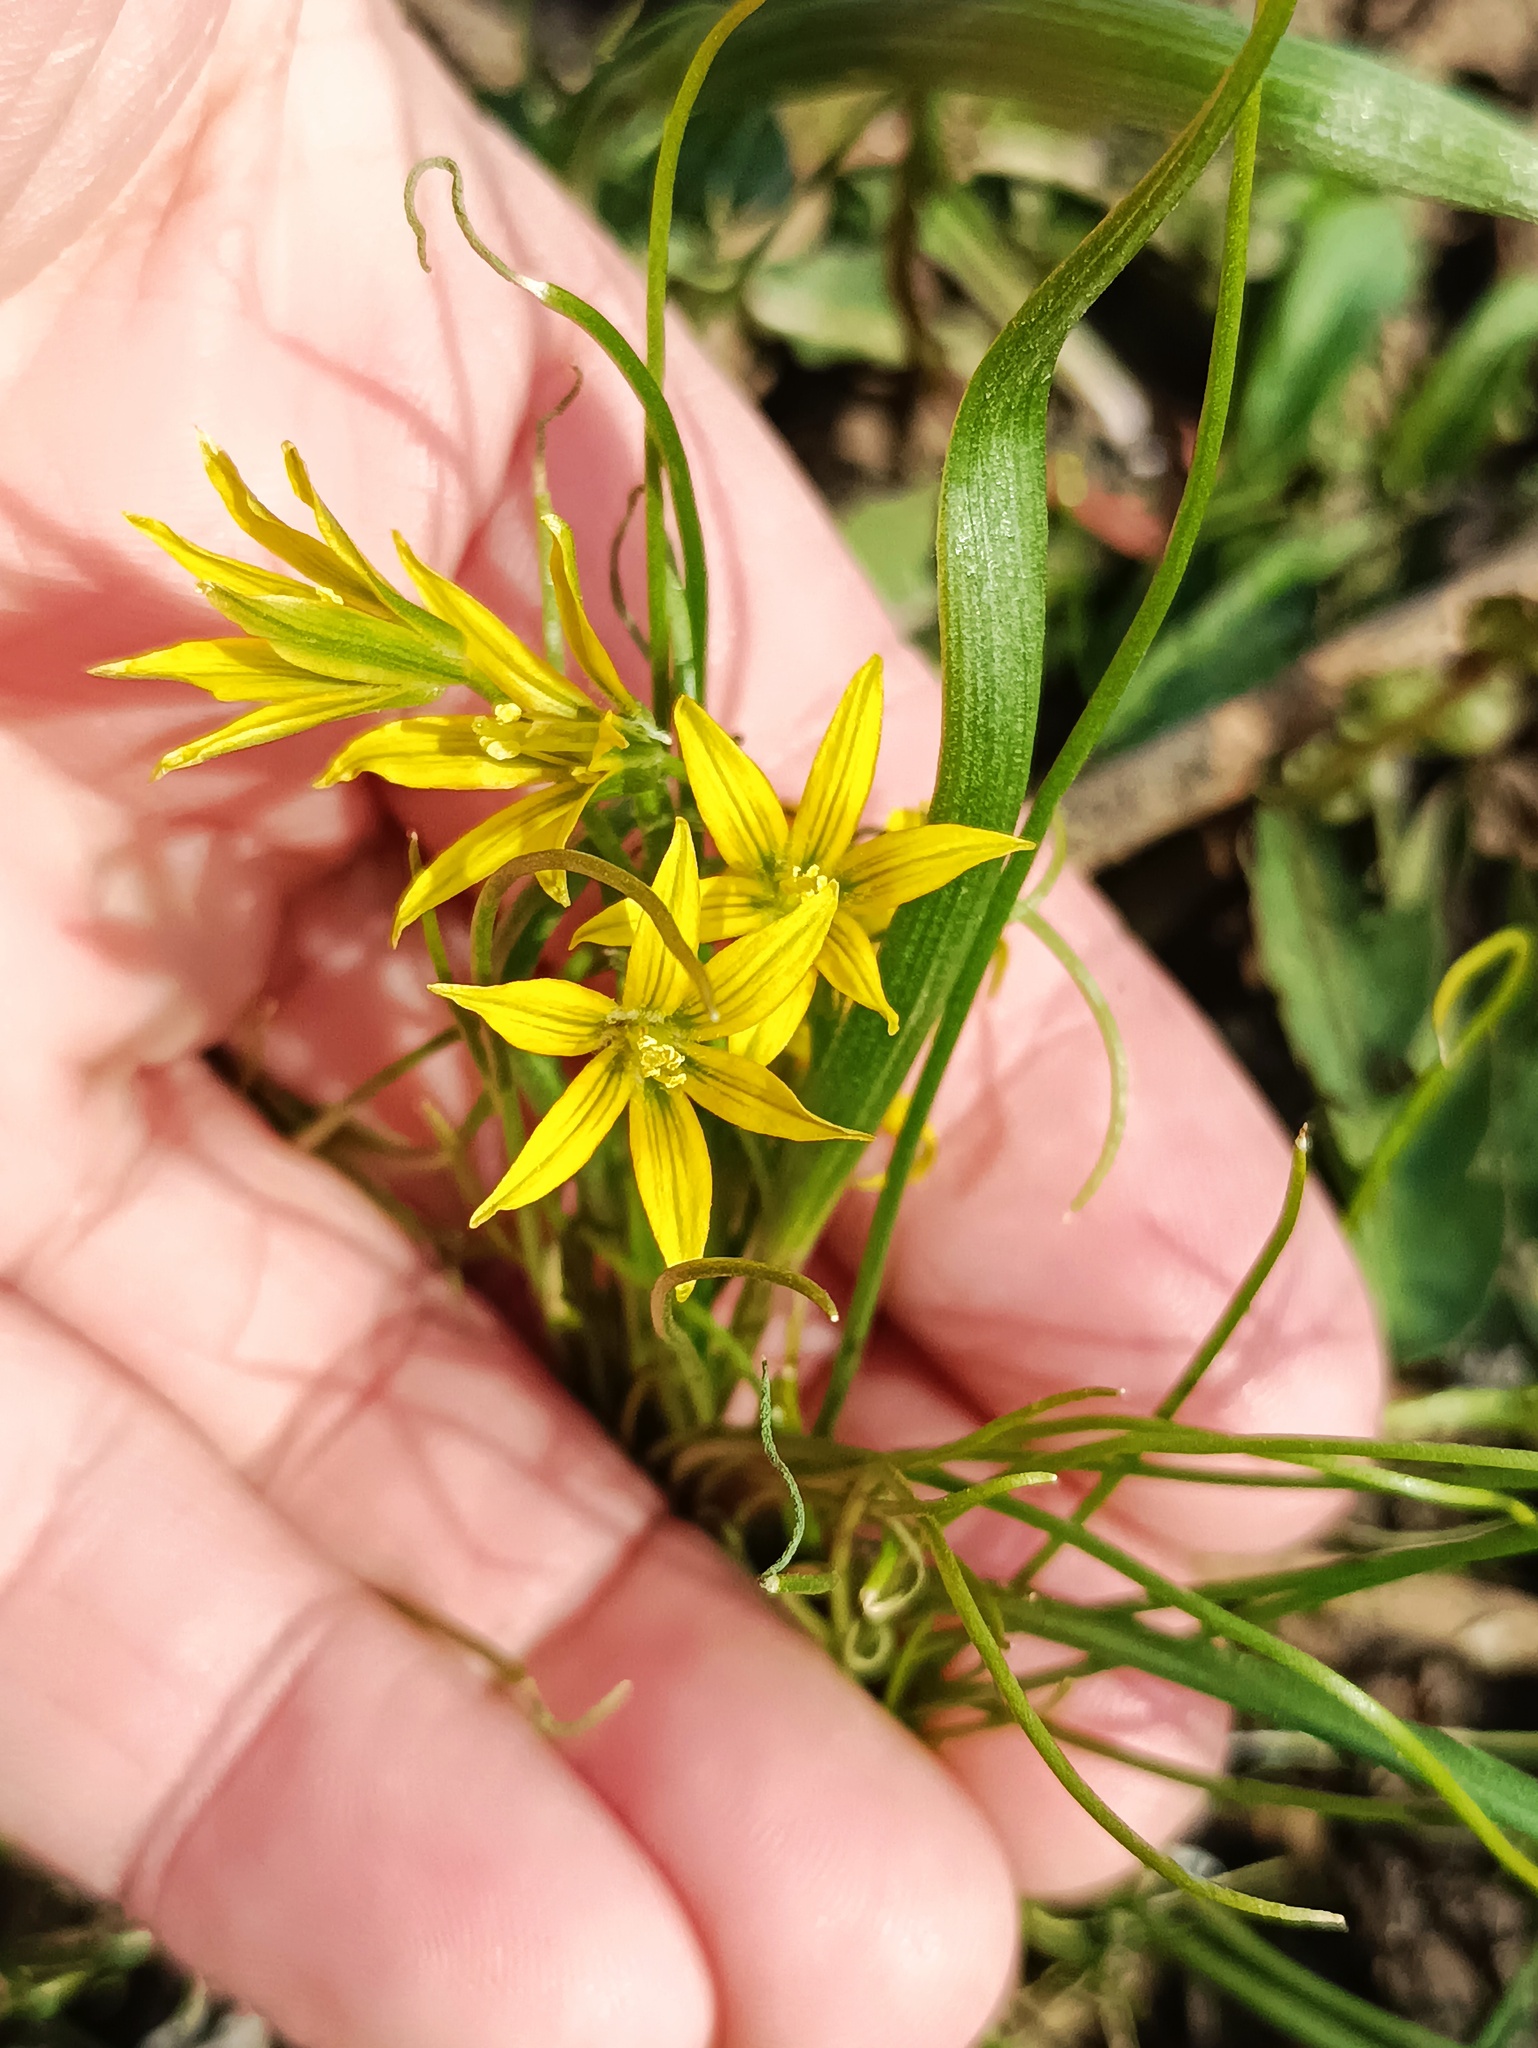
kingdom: Plantae
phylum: Tracheophyta
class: Liliopsida
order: Liliales
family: Liliaceae
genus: Gagea
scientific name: Gagea minima
